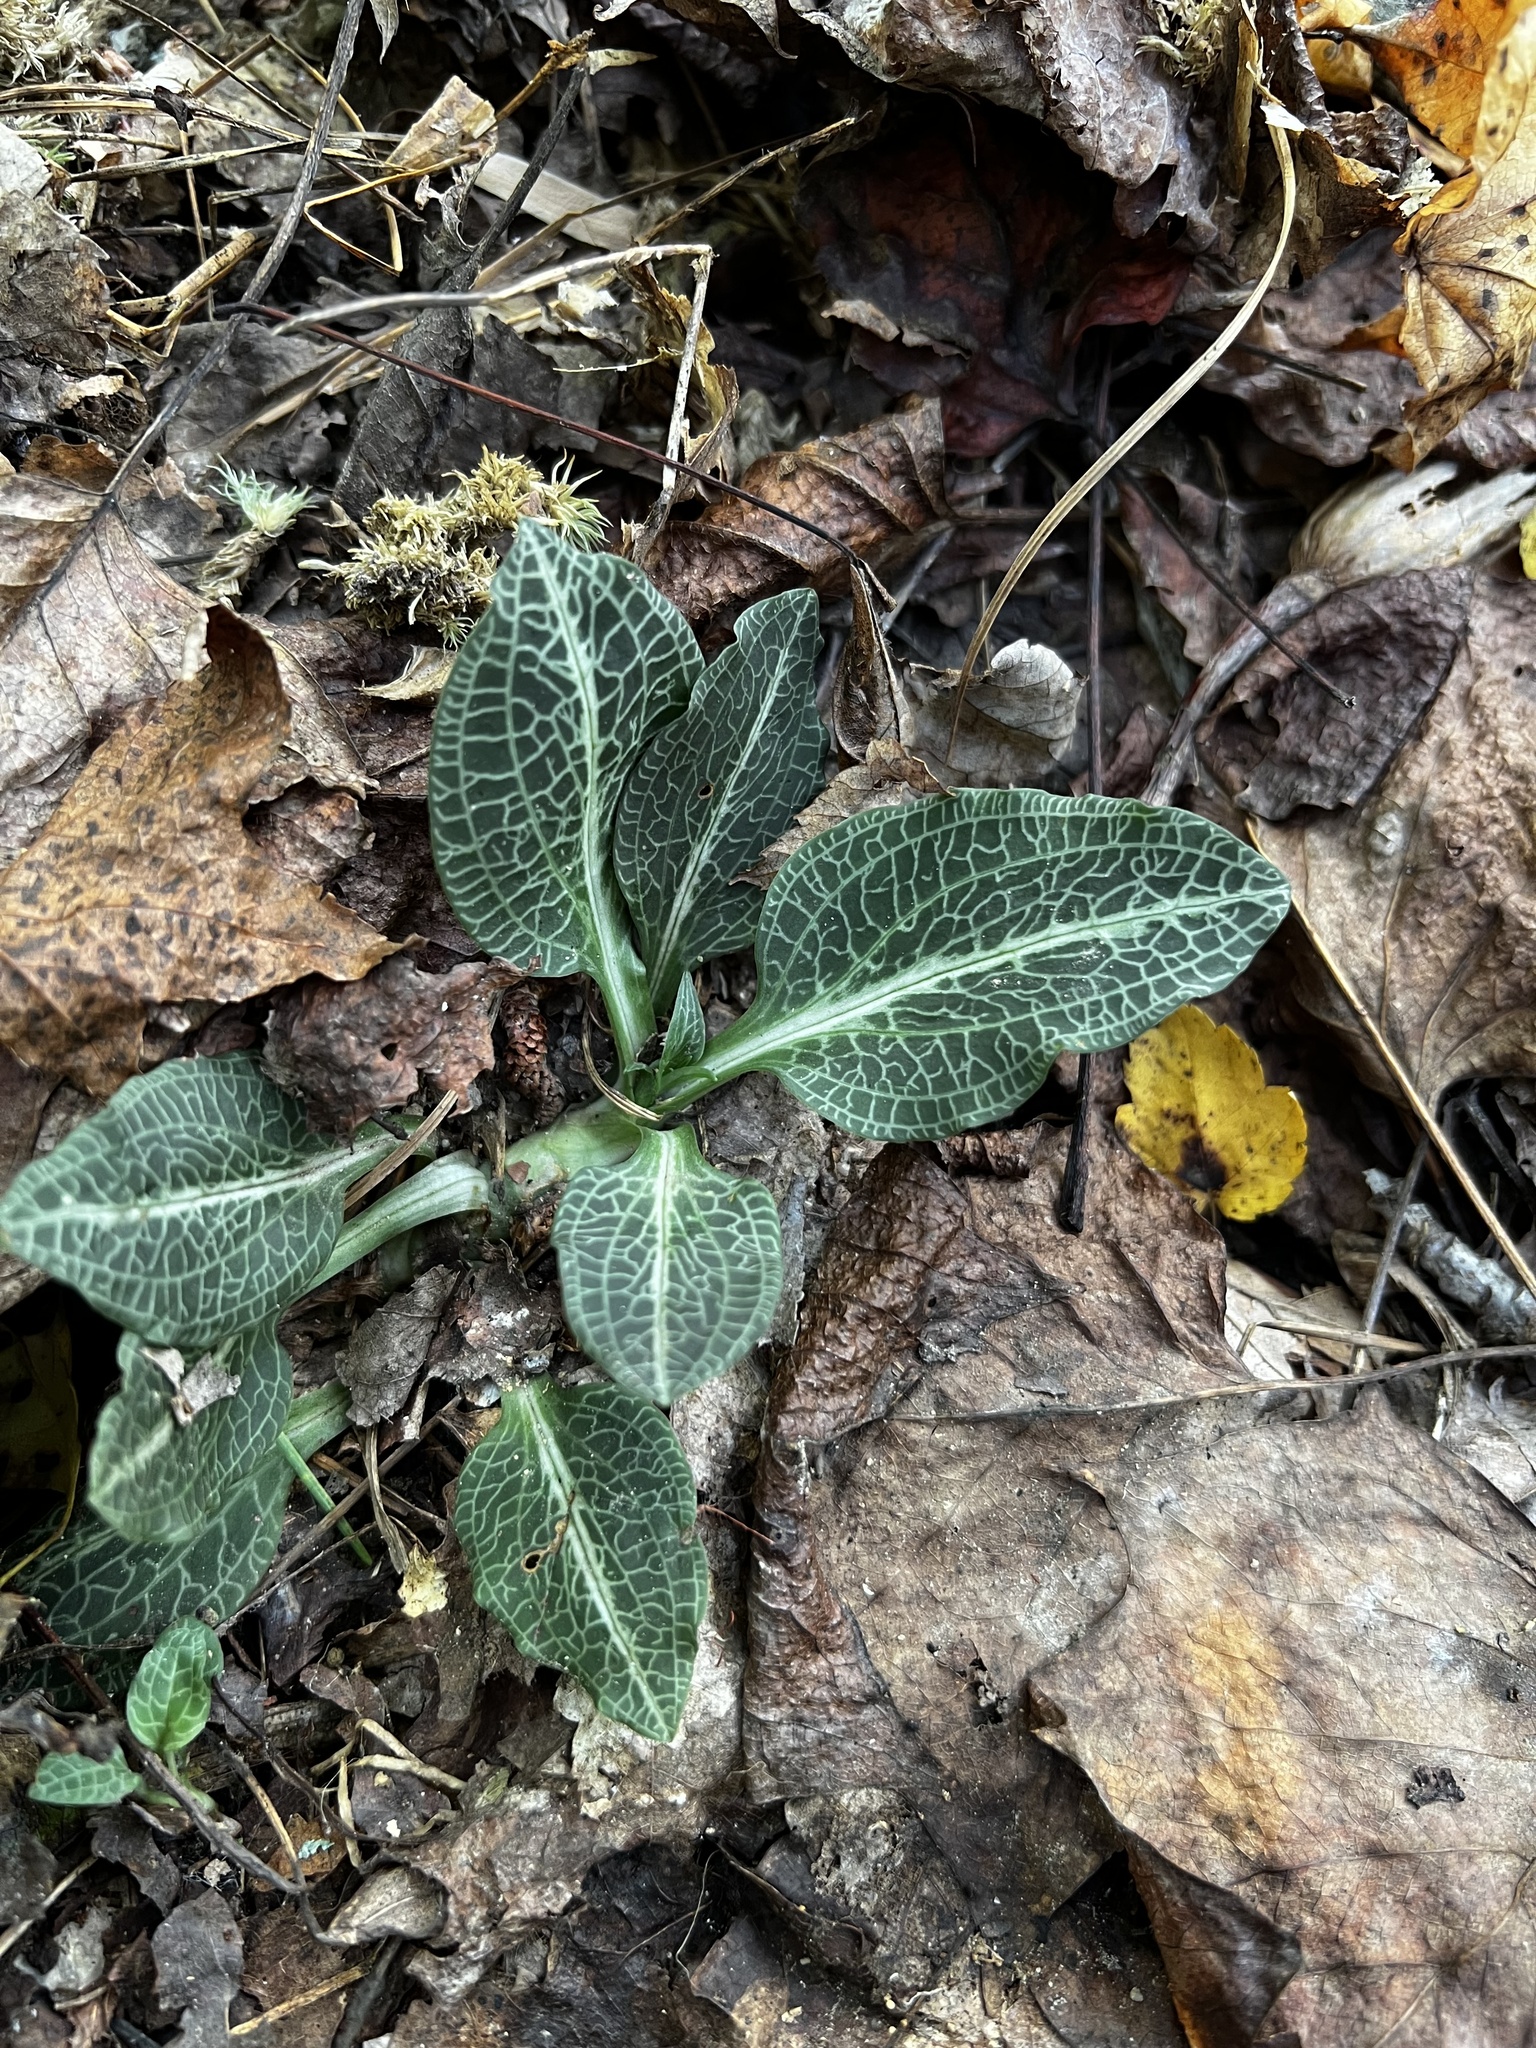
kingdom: Plantae
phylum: Tracheophyta
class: Liliopsida
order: Asparagales
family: Orchidaceae
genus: Goodyera
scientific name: Goodyera pubescens
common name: Downy rattlesnake-plantain
